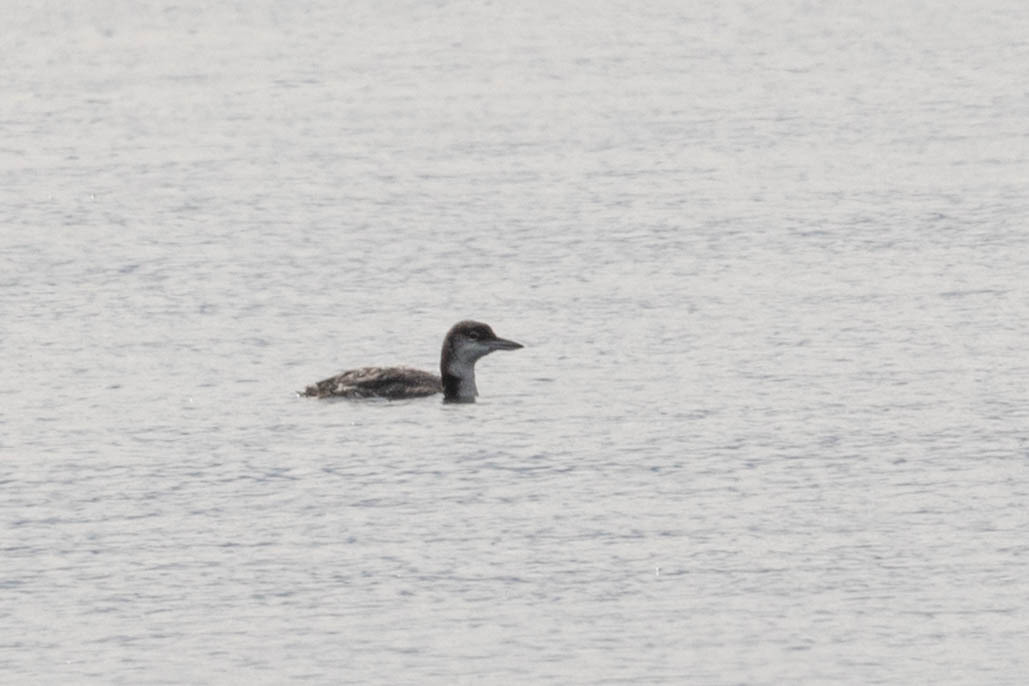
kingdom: Animalia
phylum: Chordata
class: Aves
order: Gaviiformes
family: Gaviidae
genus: Gavia
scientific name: Gavia immer
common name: Common loon
